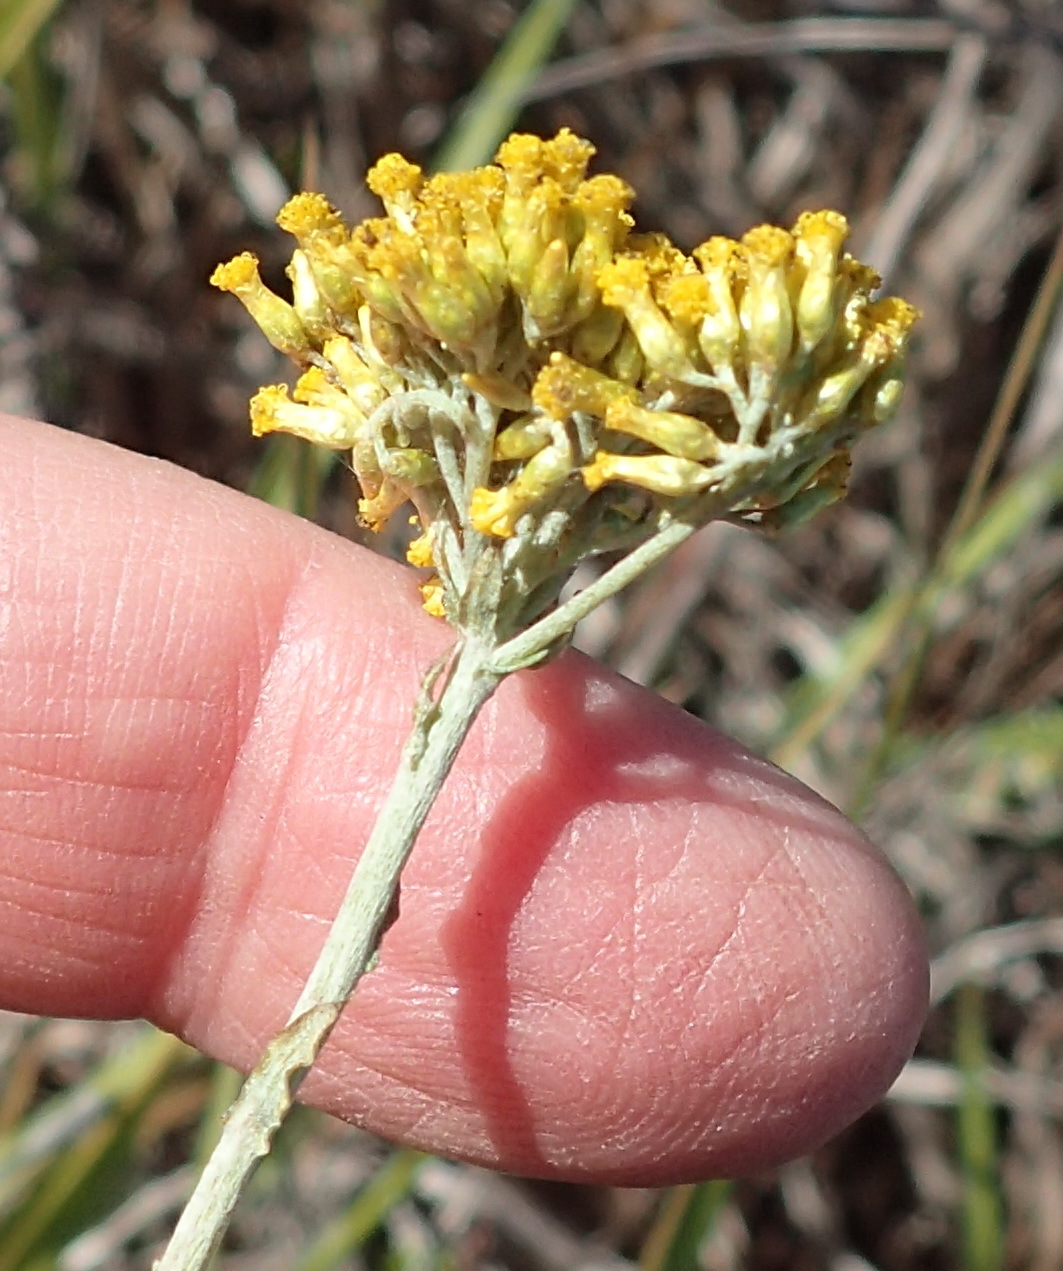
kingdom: Plantae
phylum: Tracheophyta
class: Magnoliopsida
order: Asterales
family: Asteraceae
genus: Helichrysum
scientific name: Helichrysum cymosum
